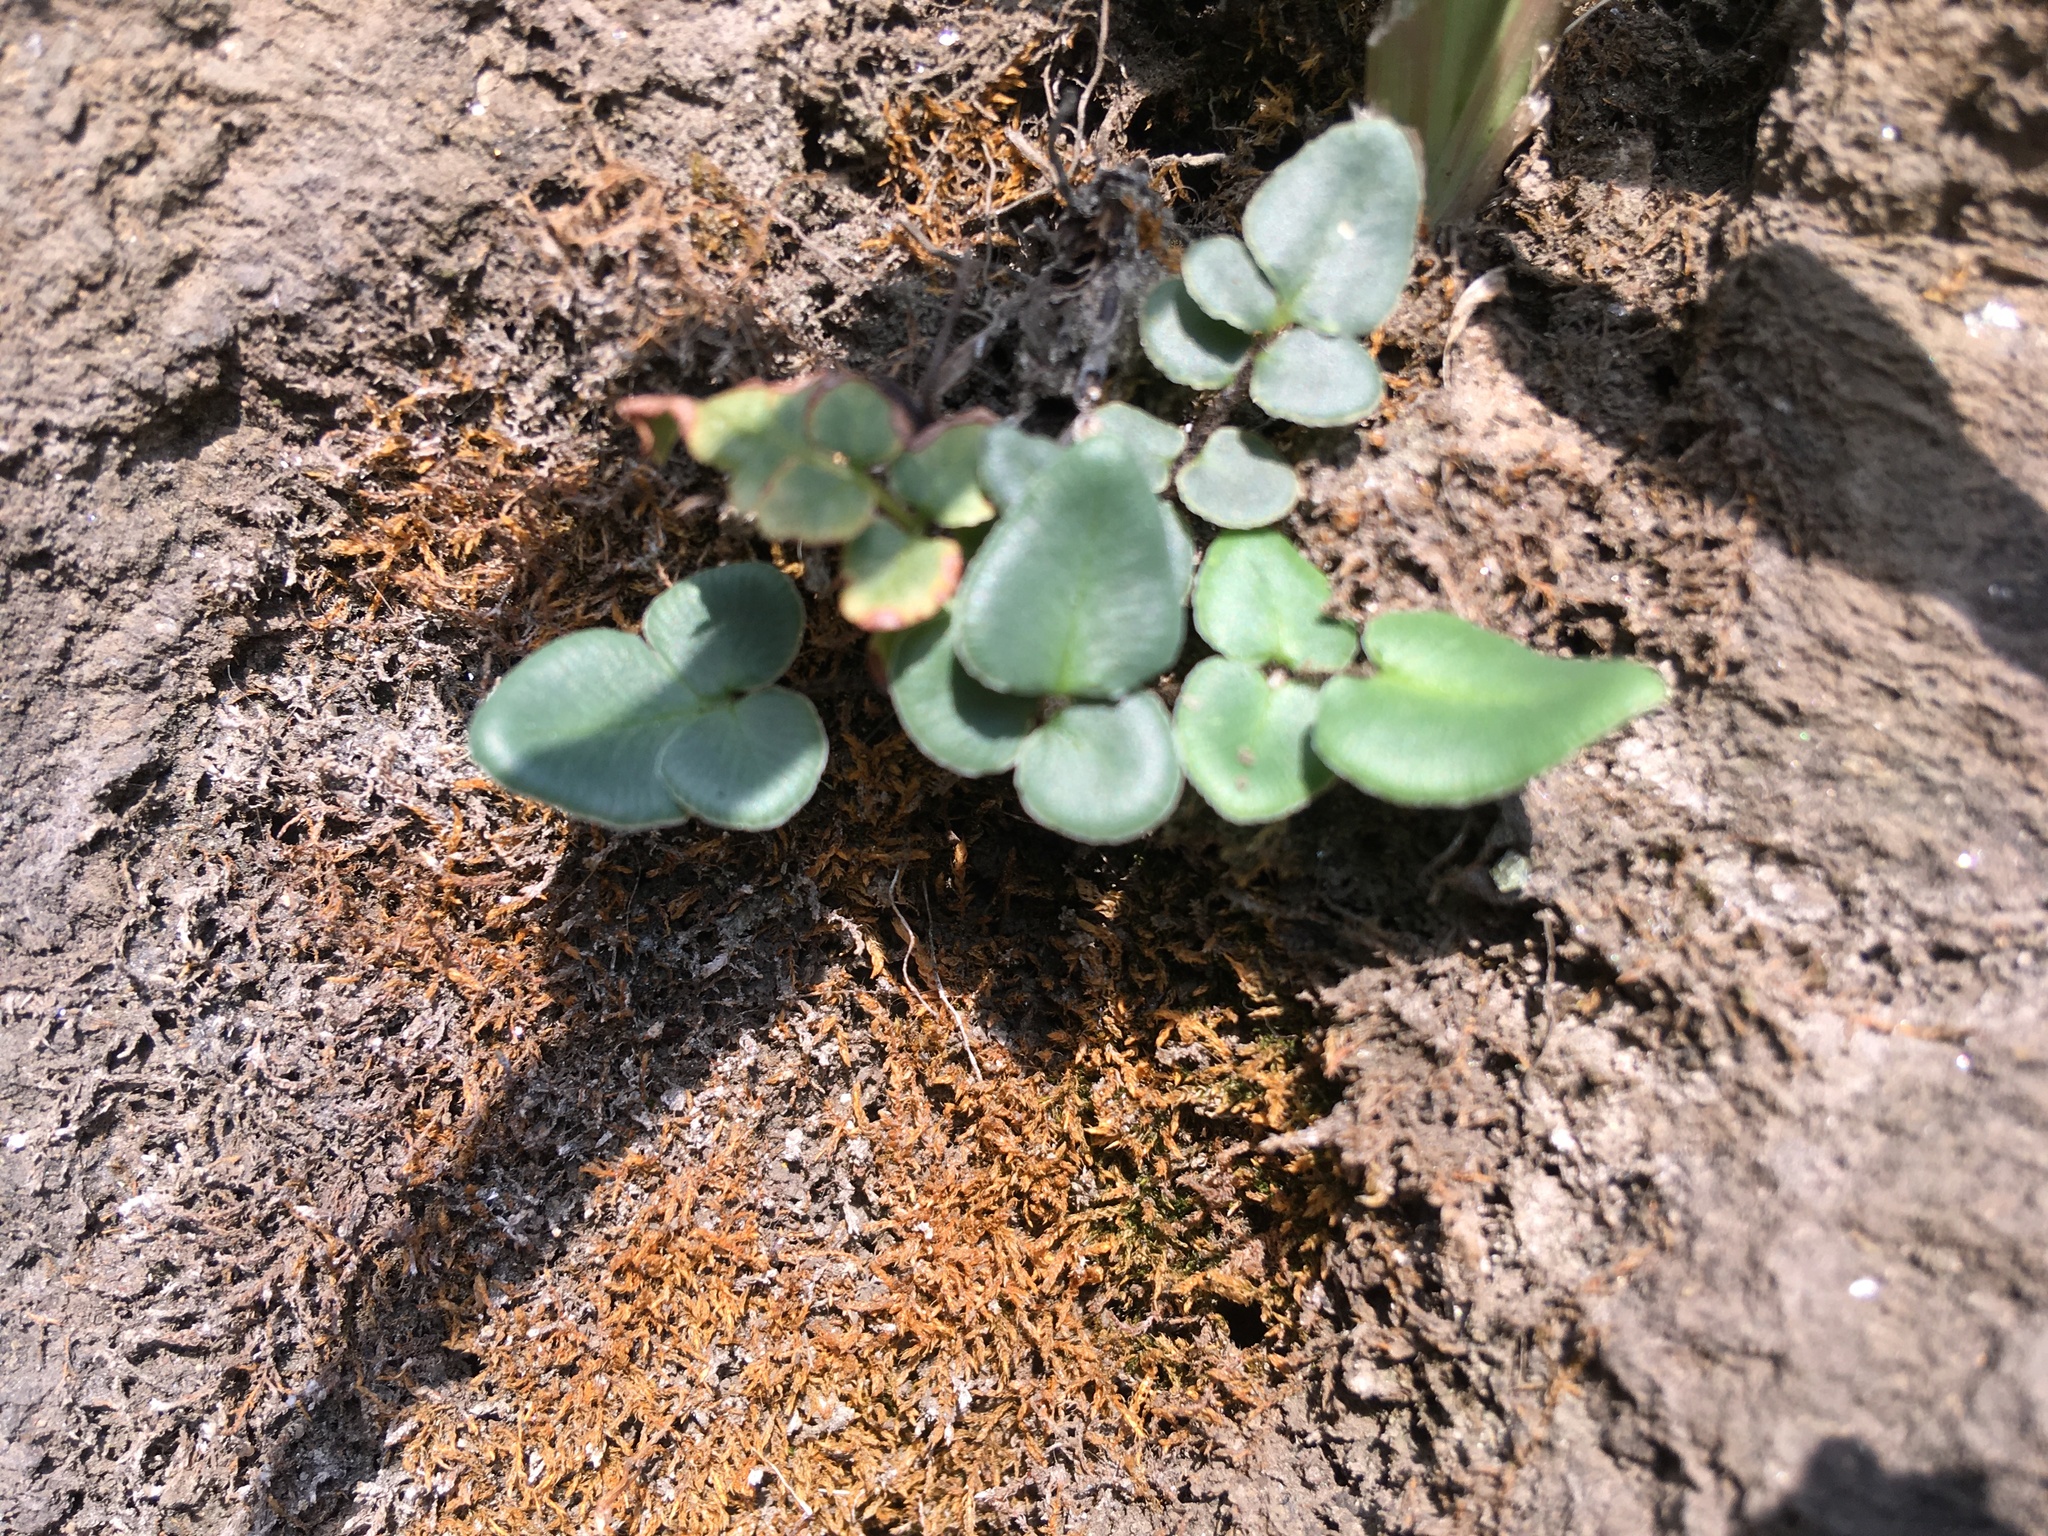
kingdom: Plantae
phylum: Tracheophyta
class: Polypodiopsida
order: Polypodiales
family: Pteridaceae
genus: Pellaea
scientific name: Pellaea atropurpurea
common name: Hairy cliffbrake
